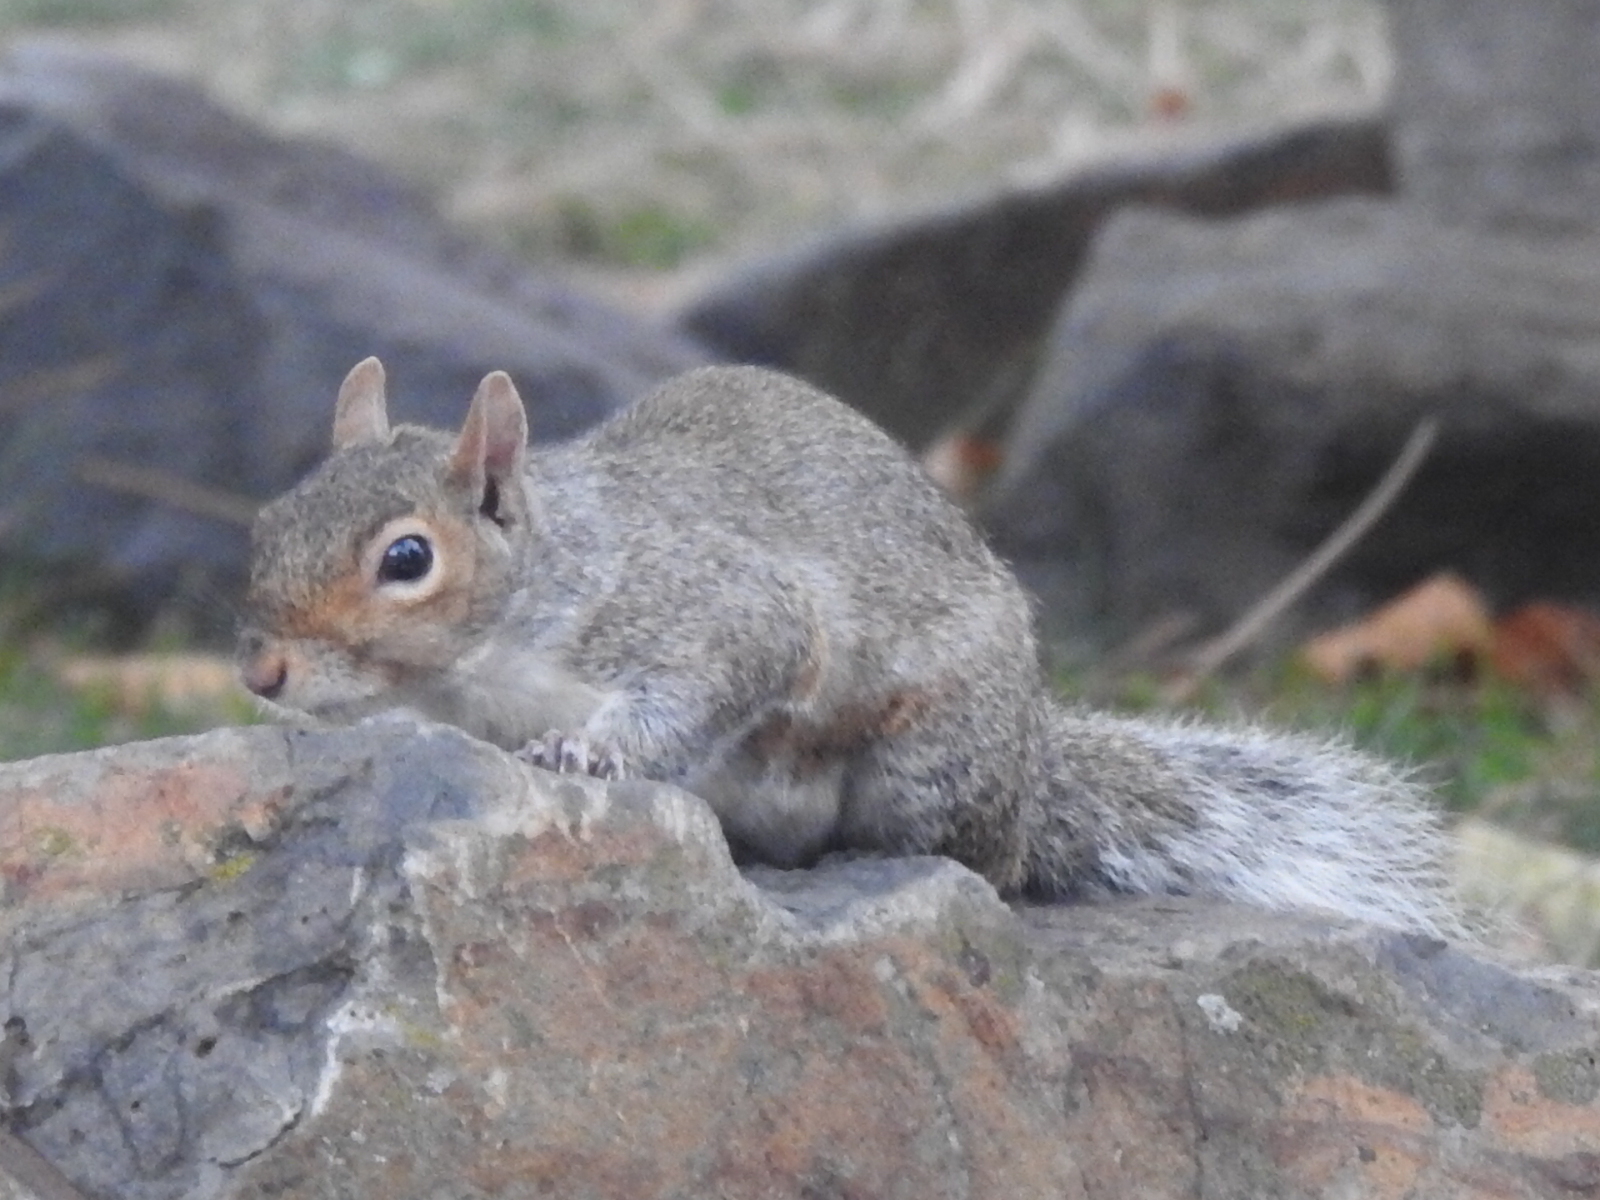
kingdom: Animalia
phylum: Chordata
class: Mammalia
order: Rodentia
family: Sciuridae
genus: Sciurus
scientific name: Sciurus carolinensis
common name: Eastern gray squirrel
